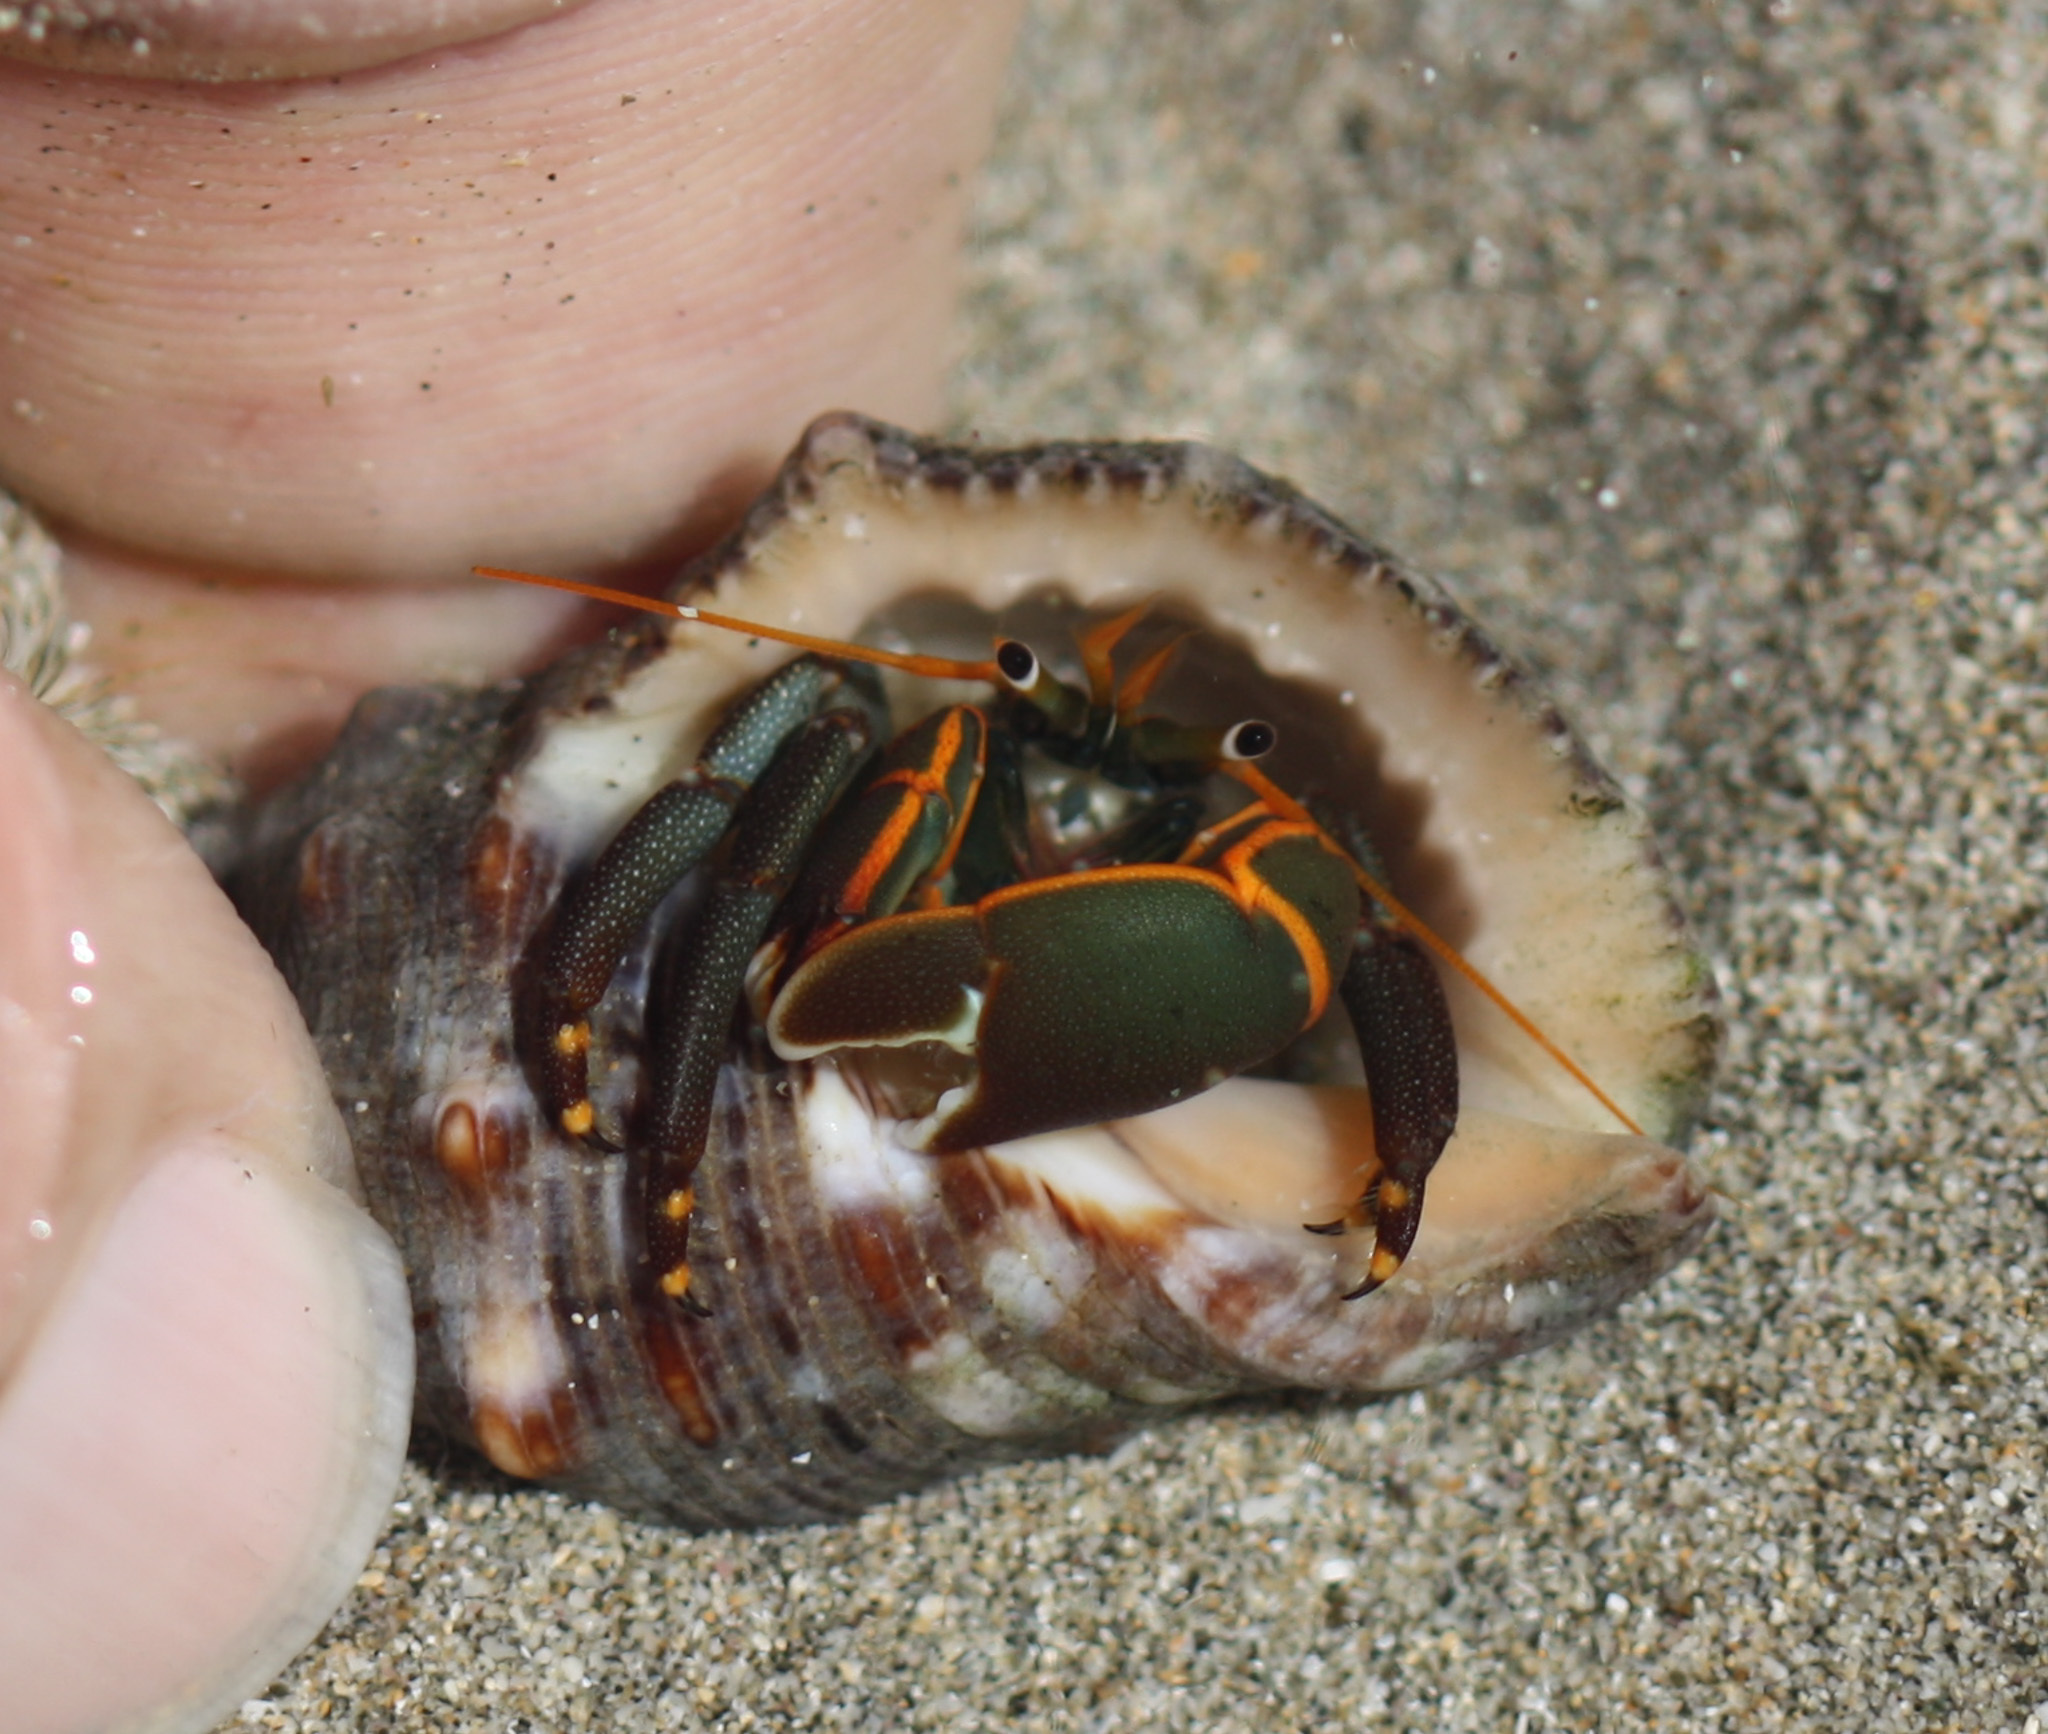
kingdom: Animalia
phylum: Arthropoda
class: Malacostraca
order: Decapoda
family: Diogenidae
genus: Calcinus
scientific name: Calcinus obscurus
